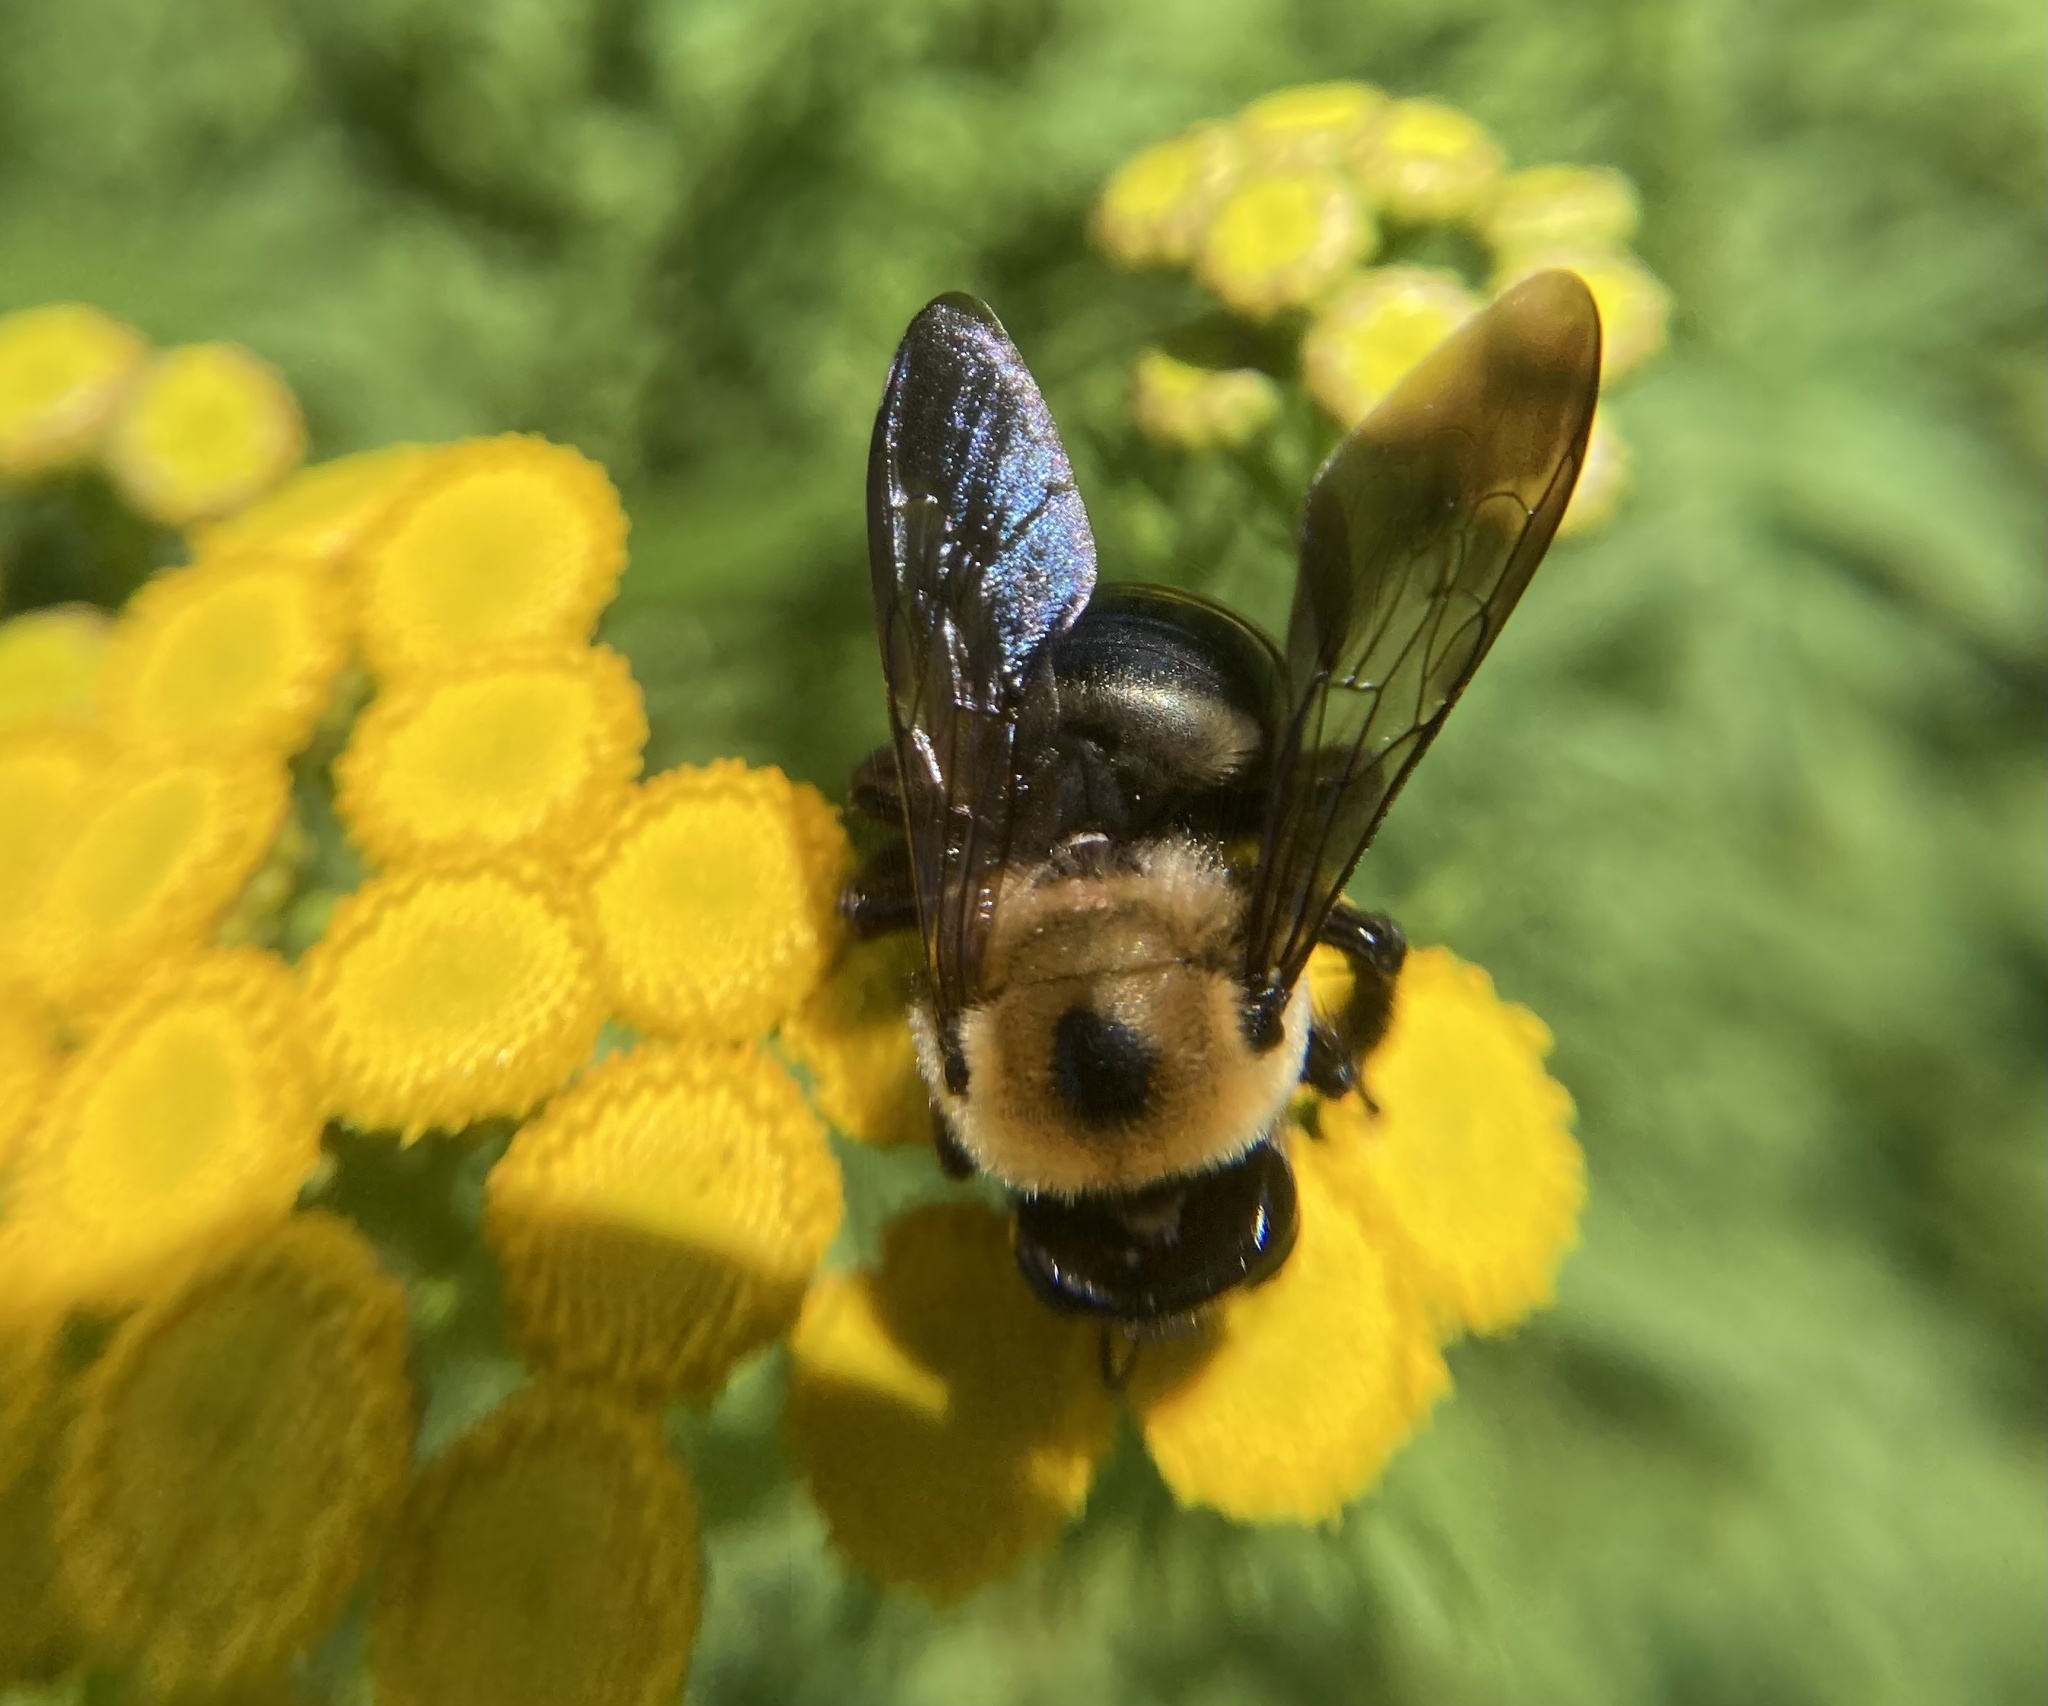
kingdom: Animalia
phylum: Arthropoda
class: Insecta
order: Hymenoptera
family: Apidae
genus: Xylocopa
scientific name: Xylocopa virginica
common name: Carpenter bee
